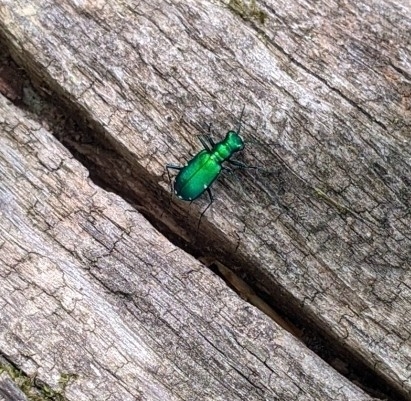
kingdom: Animalia
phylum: Arthropoda
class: Insecta
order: Coleoptera
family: Carabidae
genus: Cicindela
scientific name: Cicindela sexguttata
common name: Six-spotted tiger beetle
